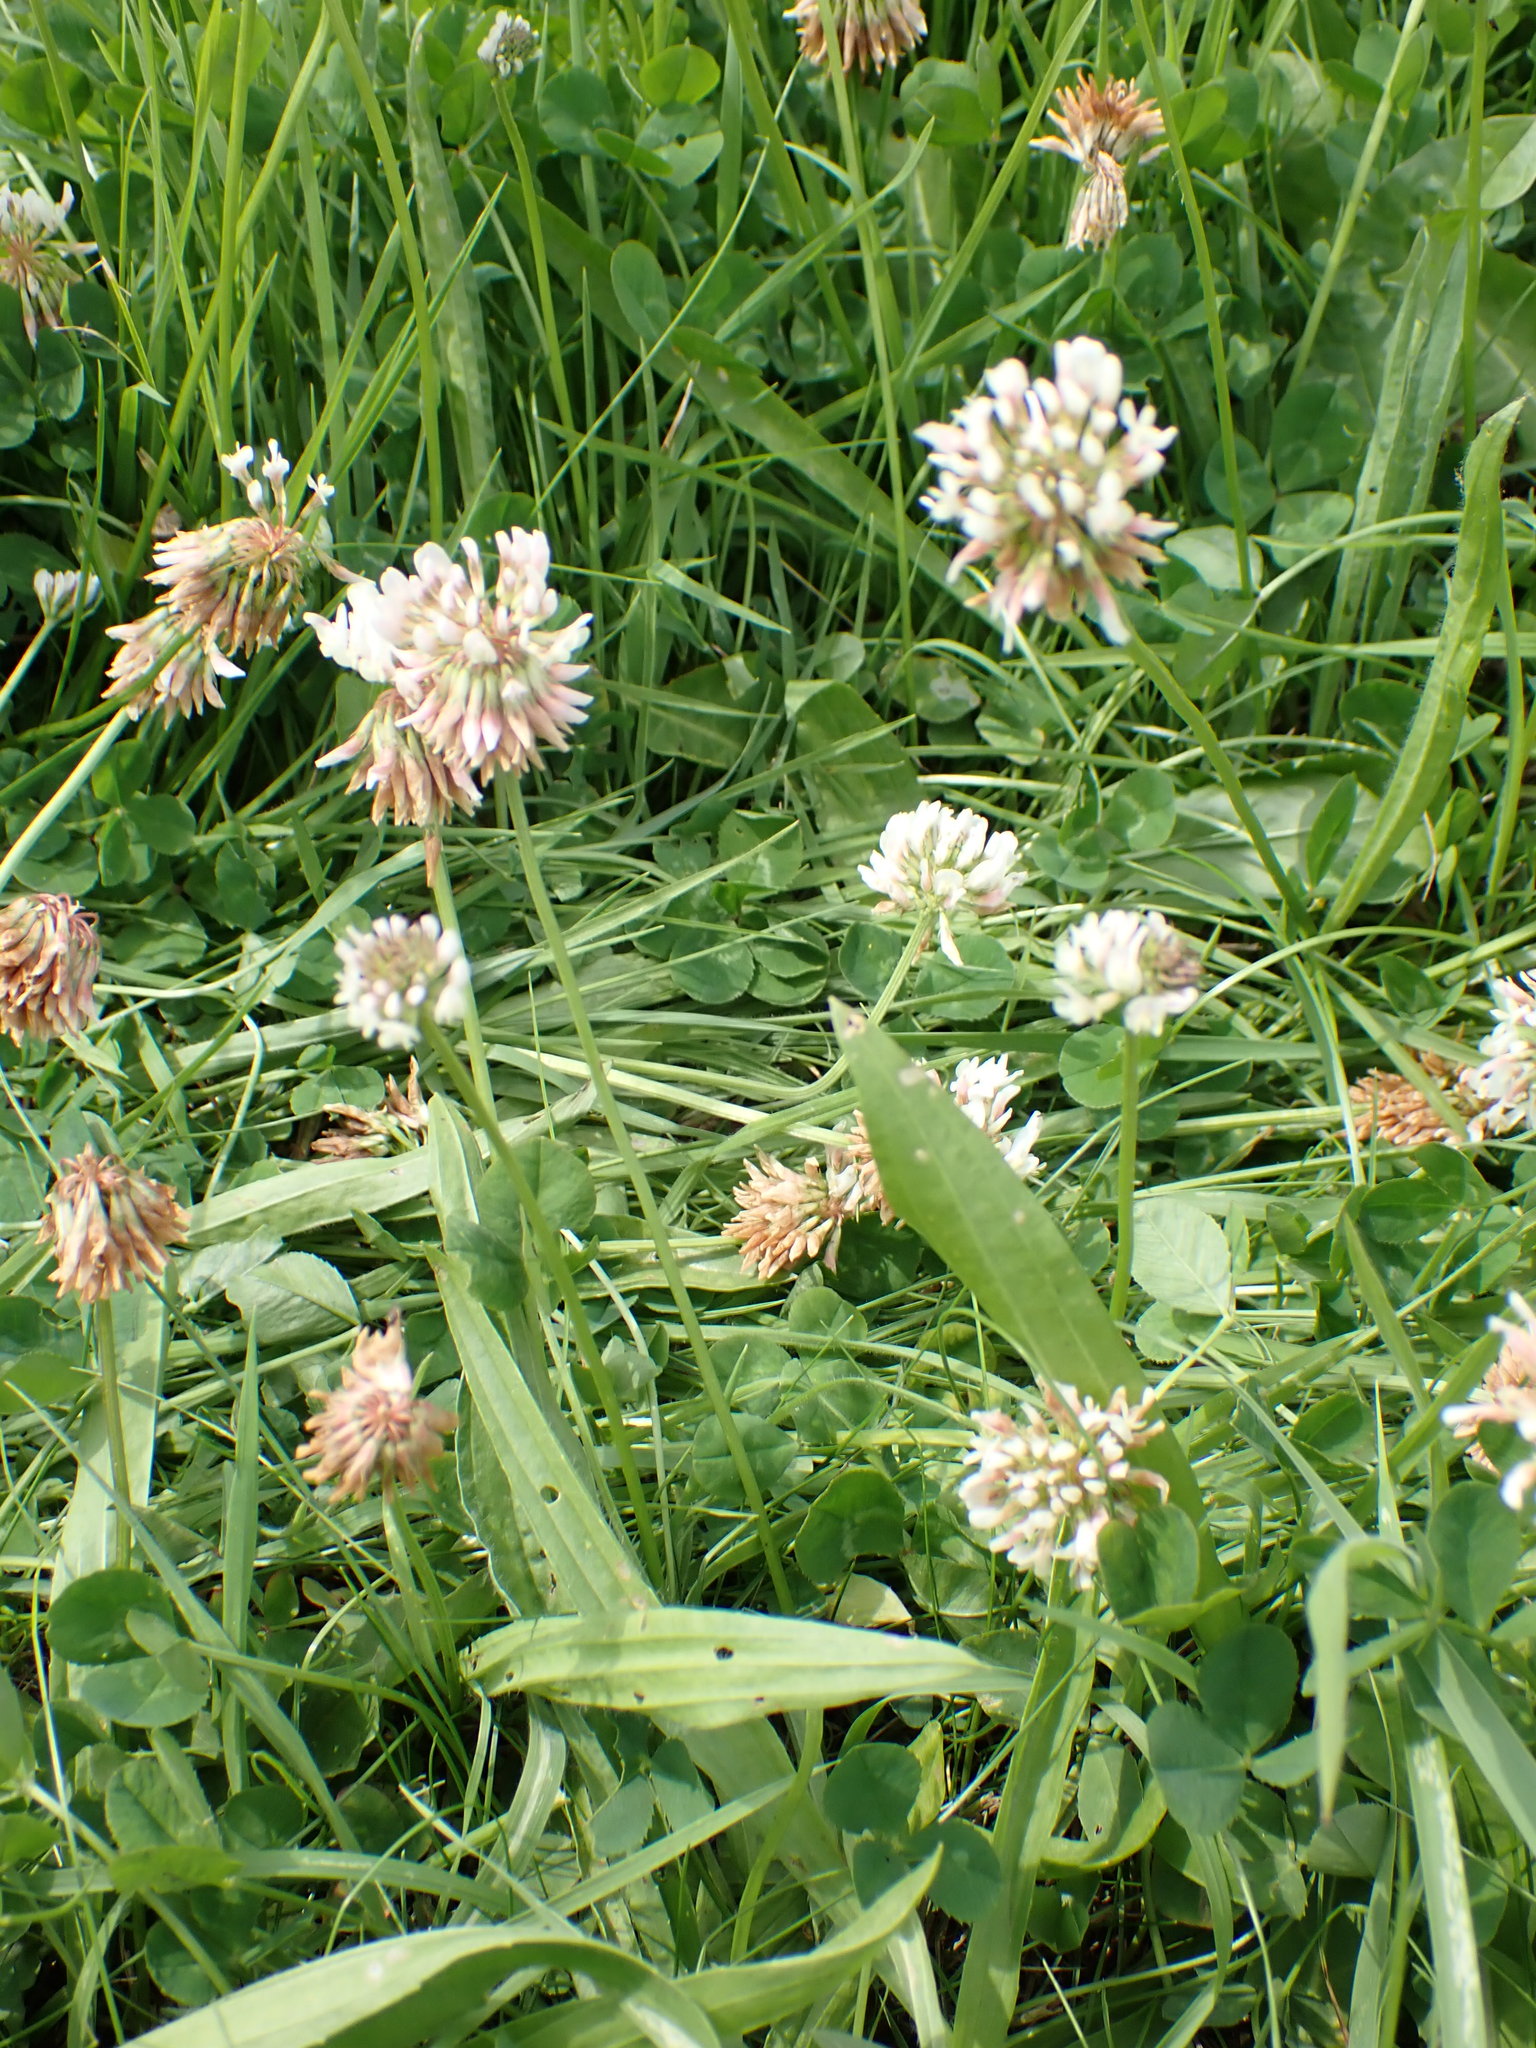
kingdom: Plantae
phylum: Tracheophyta
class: Magnoliopsida
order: Fabales
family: Fabaceae
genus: Trifolium
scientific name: Trifolium repens
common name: White clover
